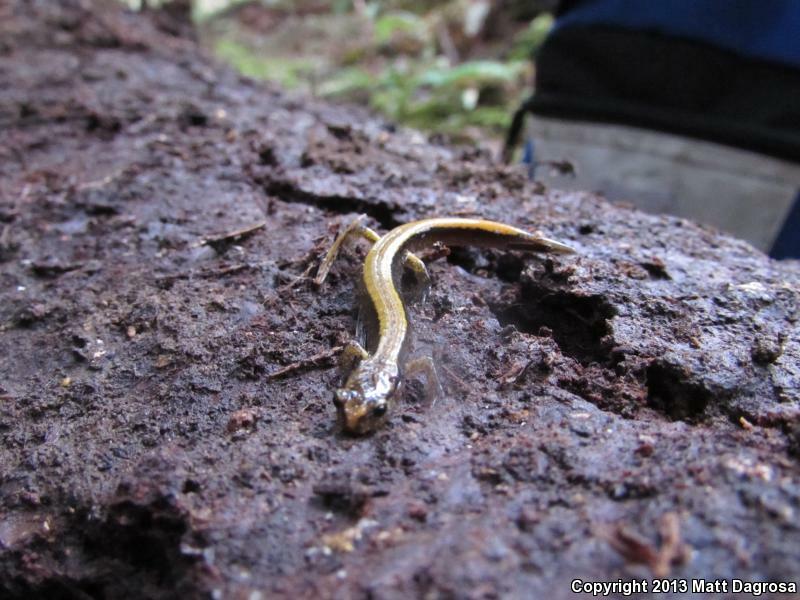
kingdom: Animalia
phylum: Chordata
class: Amphibia
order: Caudata
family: Plethodontidae
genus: Plethodon
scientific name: Plethodon vehiculum
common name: Western red-backed salamander
